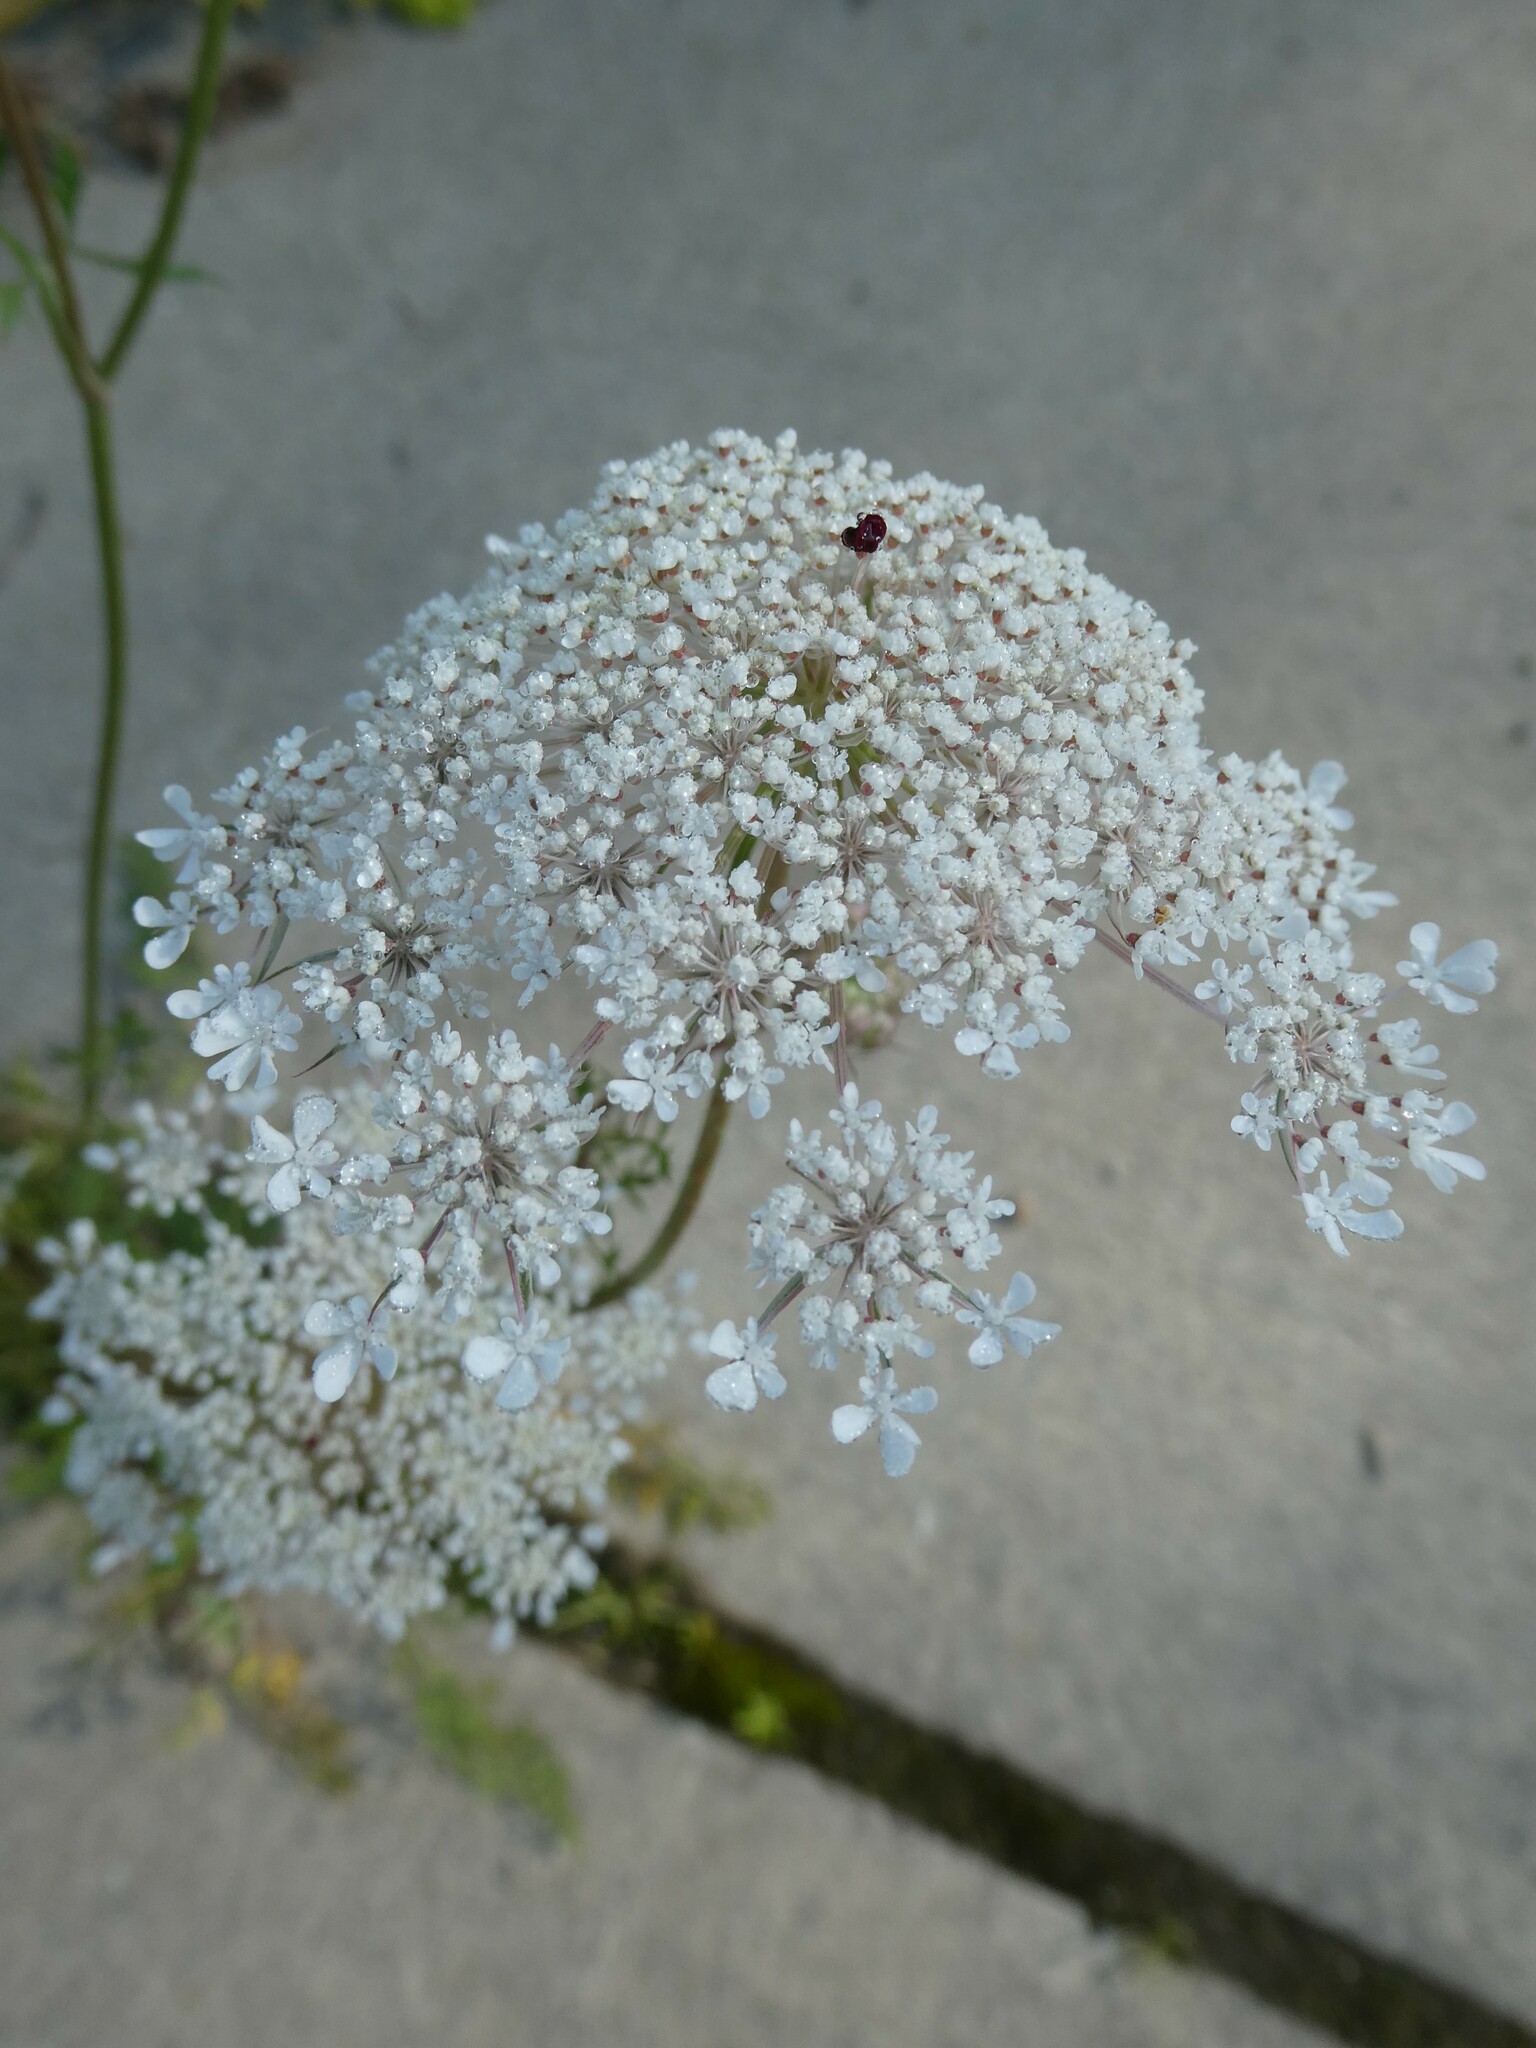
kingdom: Plantae
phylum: Tracheophyta
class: Magnoliopsida
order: Apiales
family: Apiaceae
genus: Daucus
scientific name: Daucus carota
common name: Wild carrot
